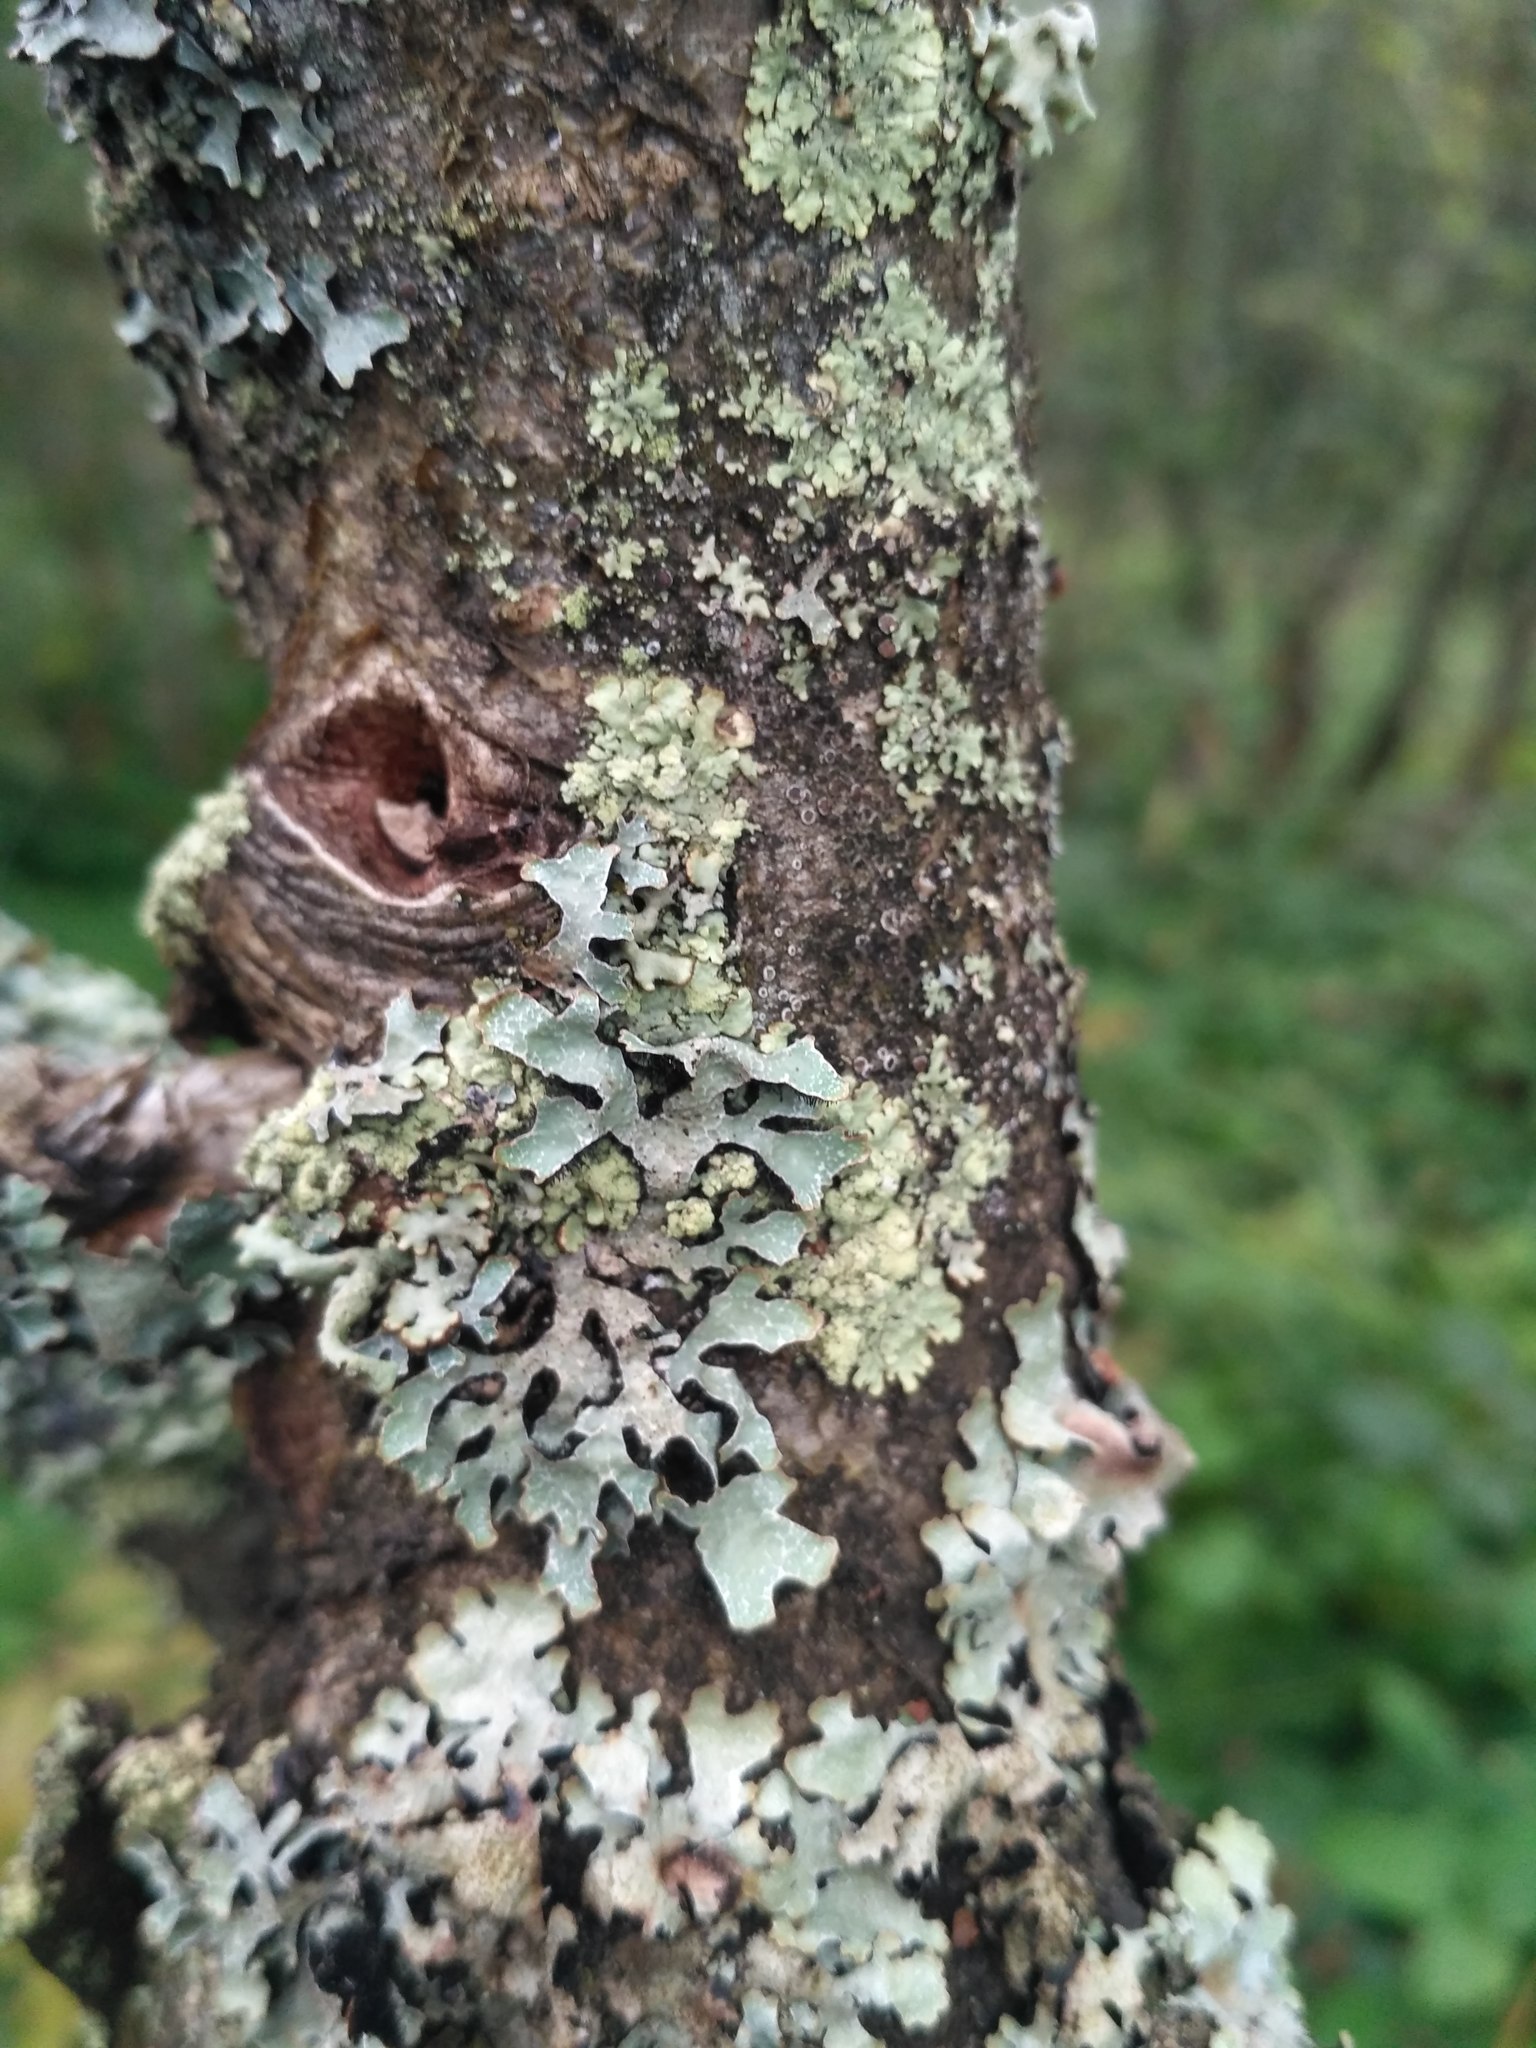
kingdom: Fungi
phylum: Ascomycota
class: Lecanoromycetes
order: Lecanorales
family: Parmeliaceae
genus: Parmelia
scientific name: Parmelia sulcata
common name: Netted shield lichen
